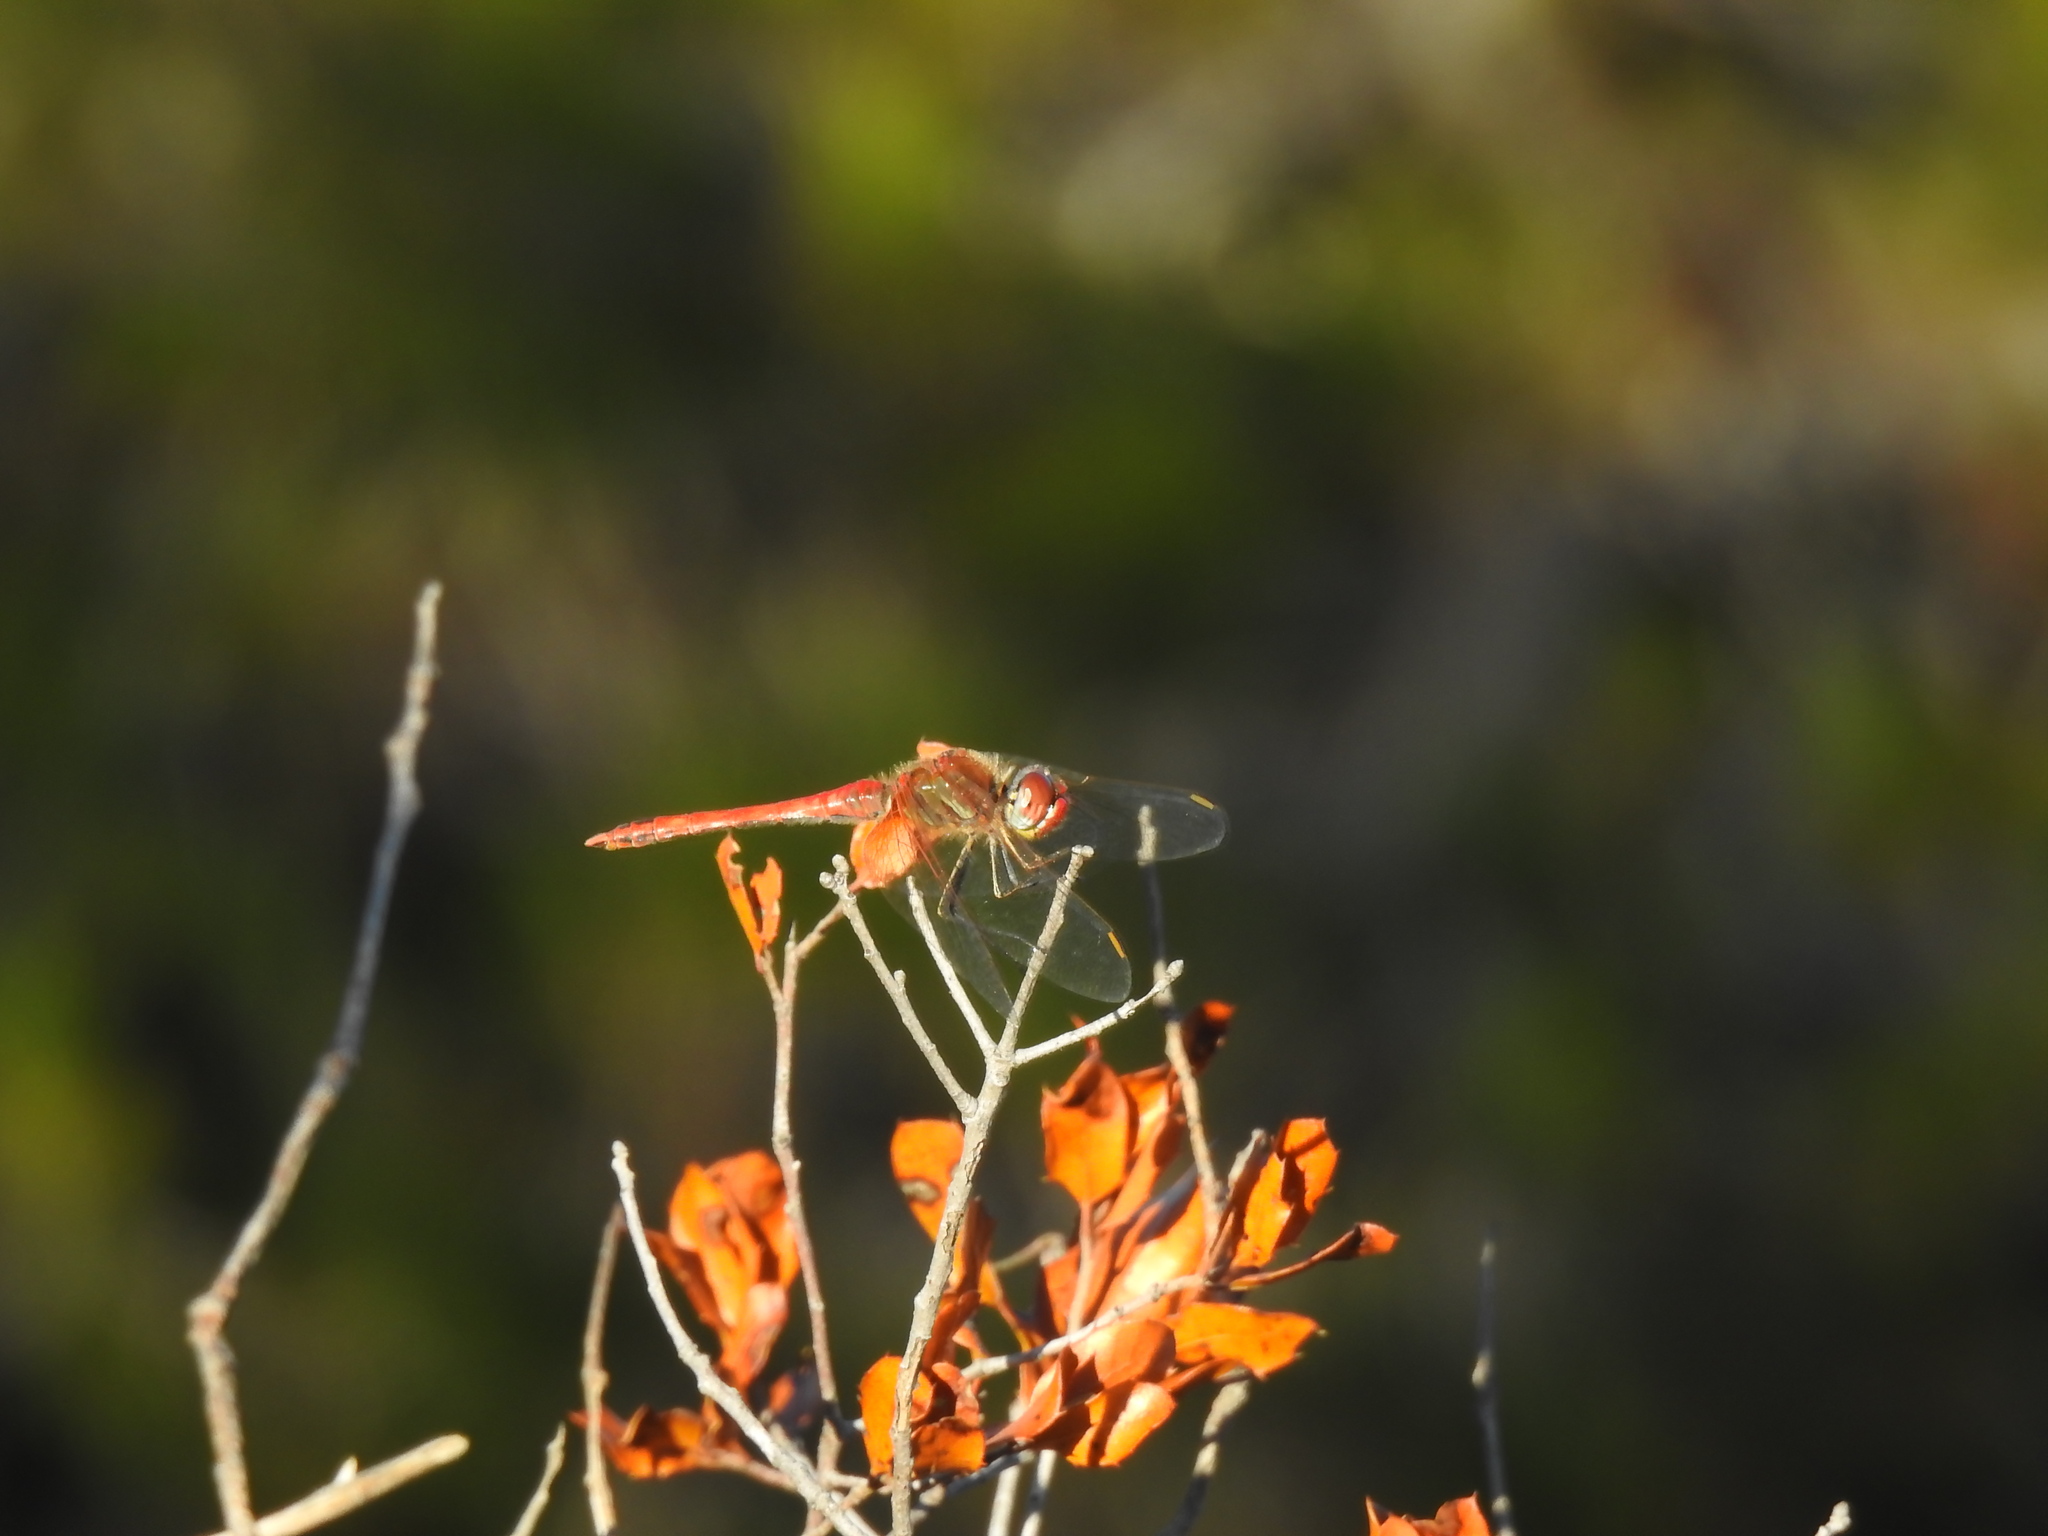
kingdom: Animalia
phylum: Arthropoda
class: Insecta
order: Odonata
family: Libellulidae
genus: Sympetrum
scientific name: Sympetrum fonscolombii
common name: Red-veined darter
